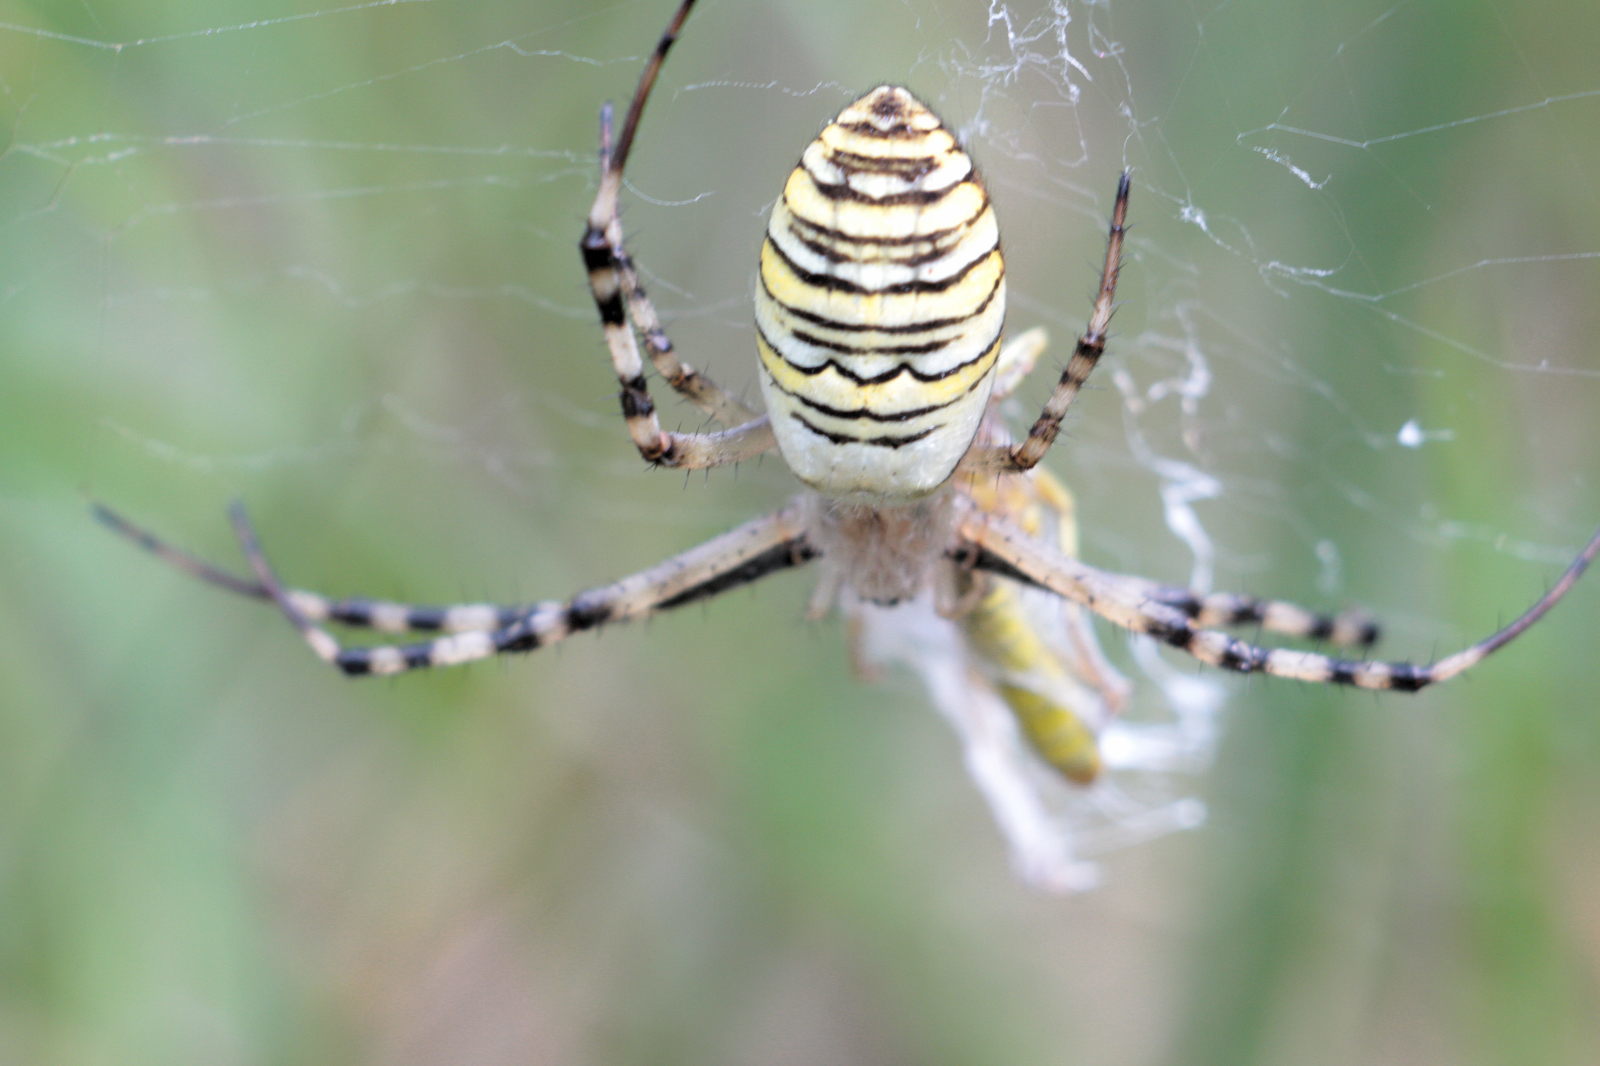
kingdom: Animalia
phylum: Arthropoda
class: Arachnida
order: Araneae
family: Araneidae
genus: Argiope
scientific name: Argiope bruennichi
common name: Wasp spider
